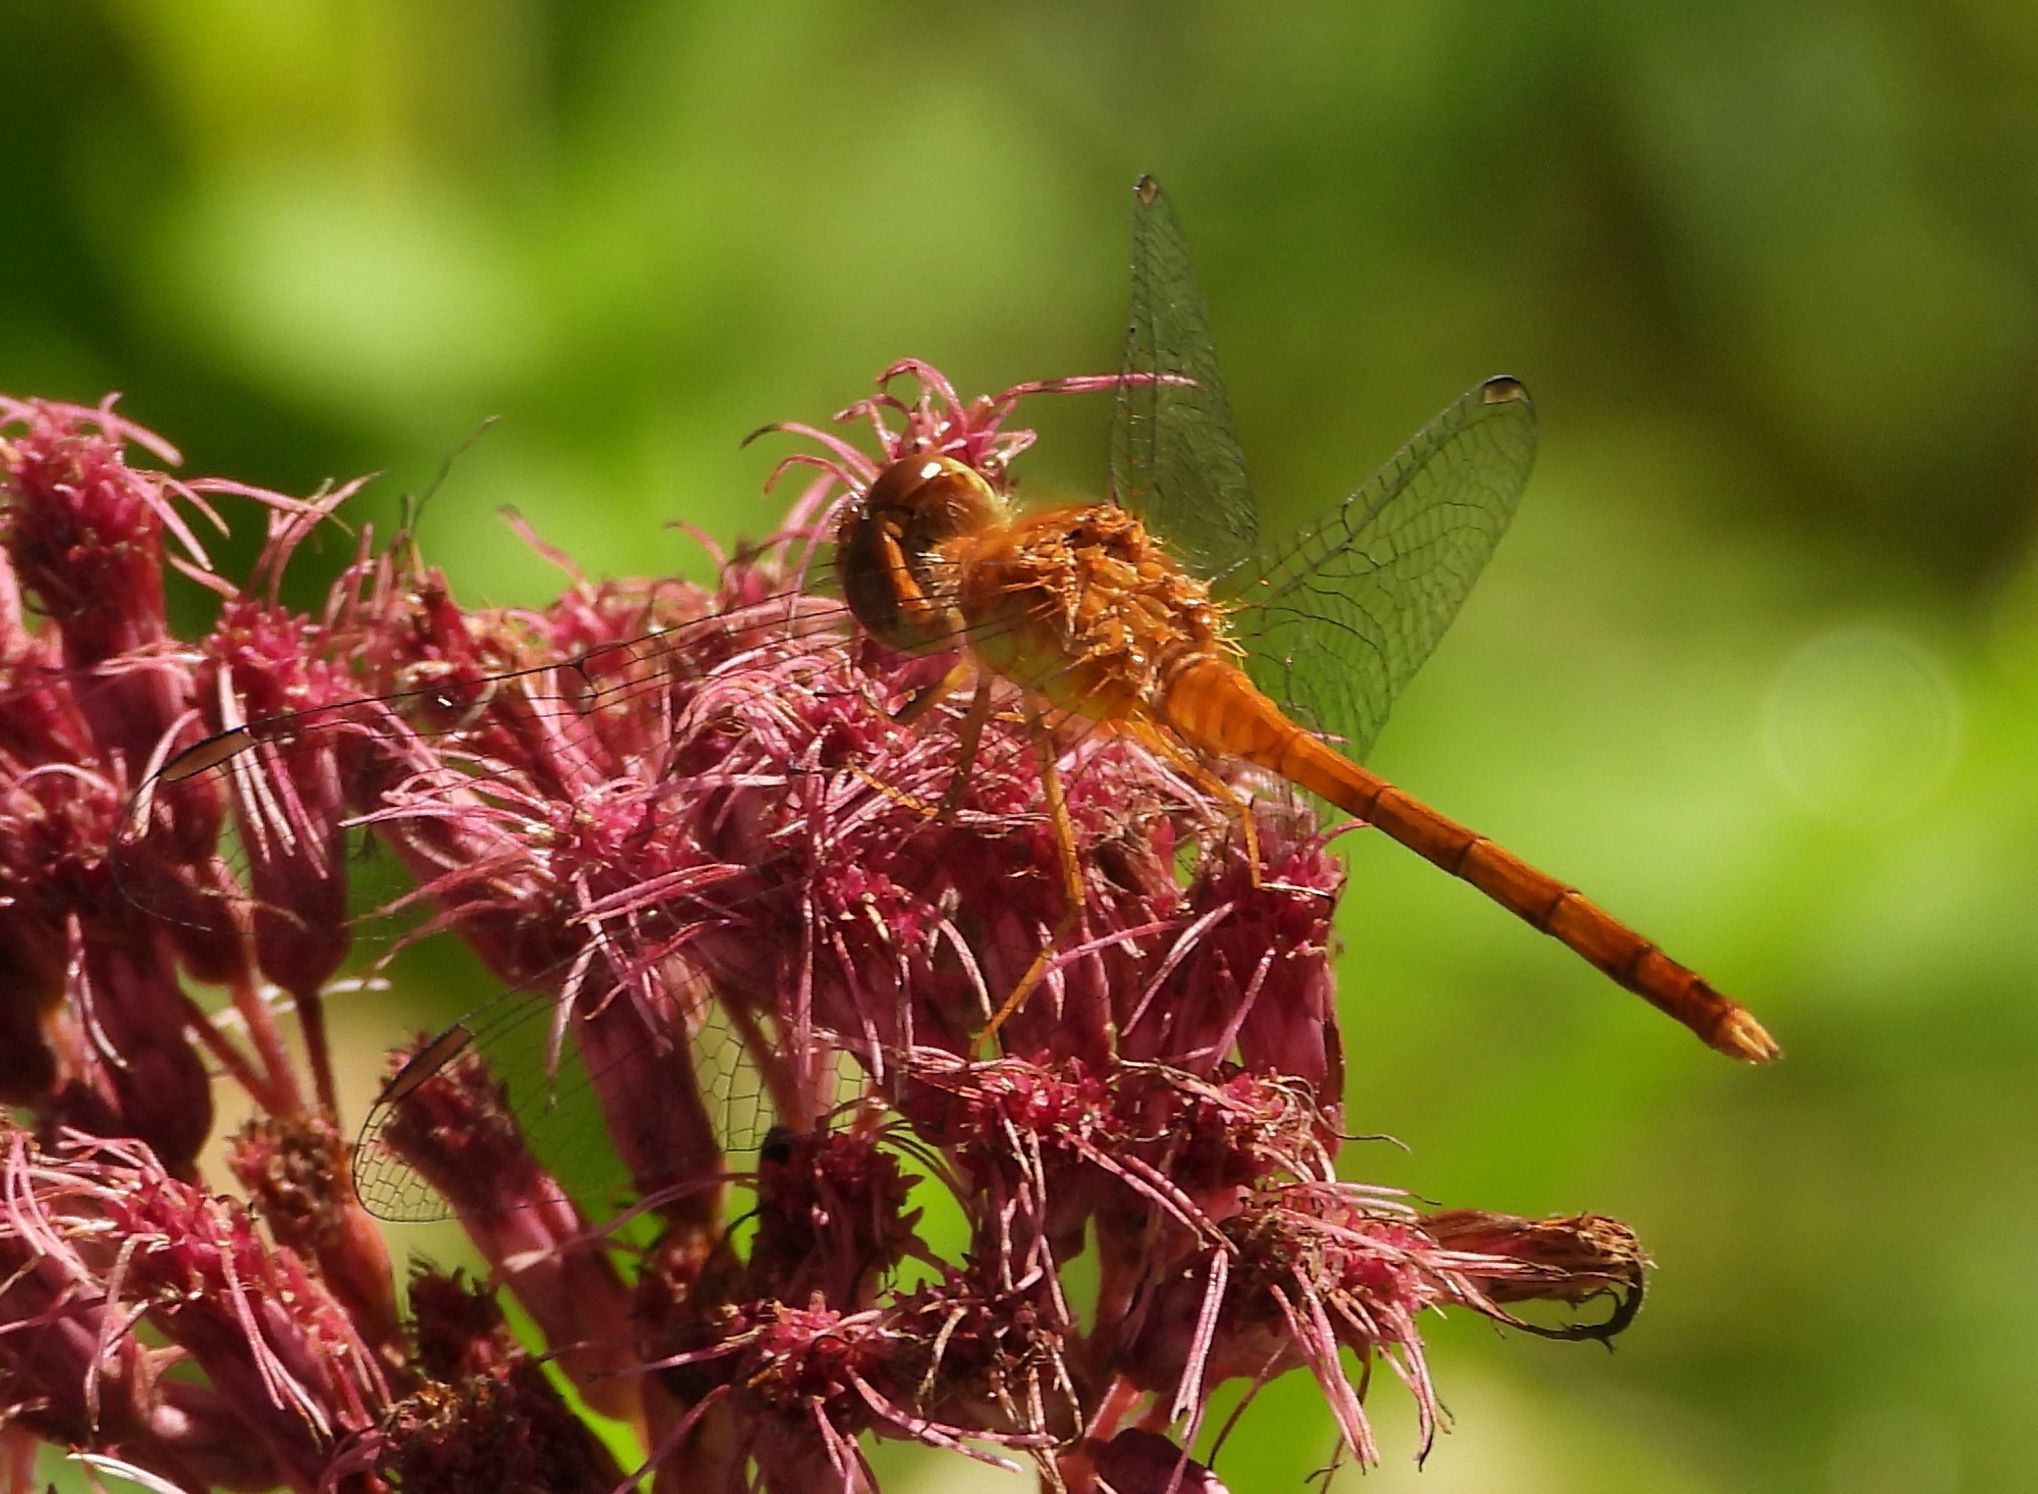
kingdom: Animalia
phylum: Arthropoda
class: Insecta
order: Odonata
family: Libellulidae
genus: Sympetrum
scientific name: Sympetrum vicinum
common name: Autumn meadowhawk
